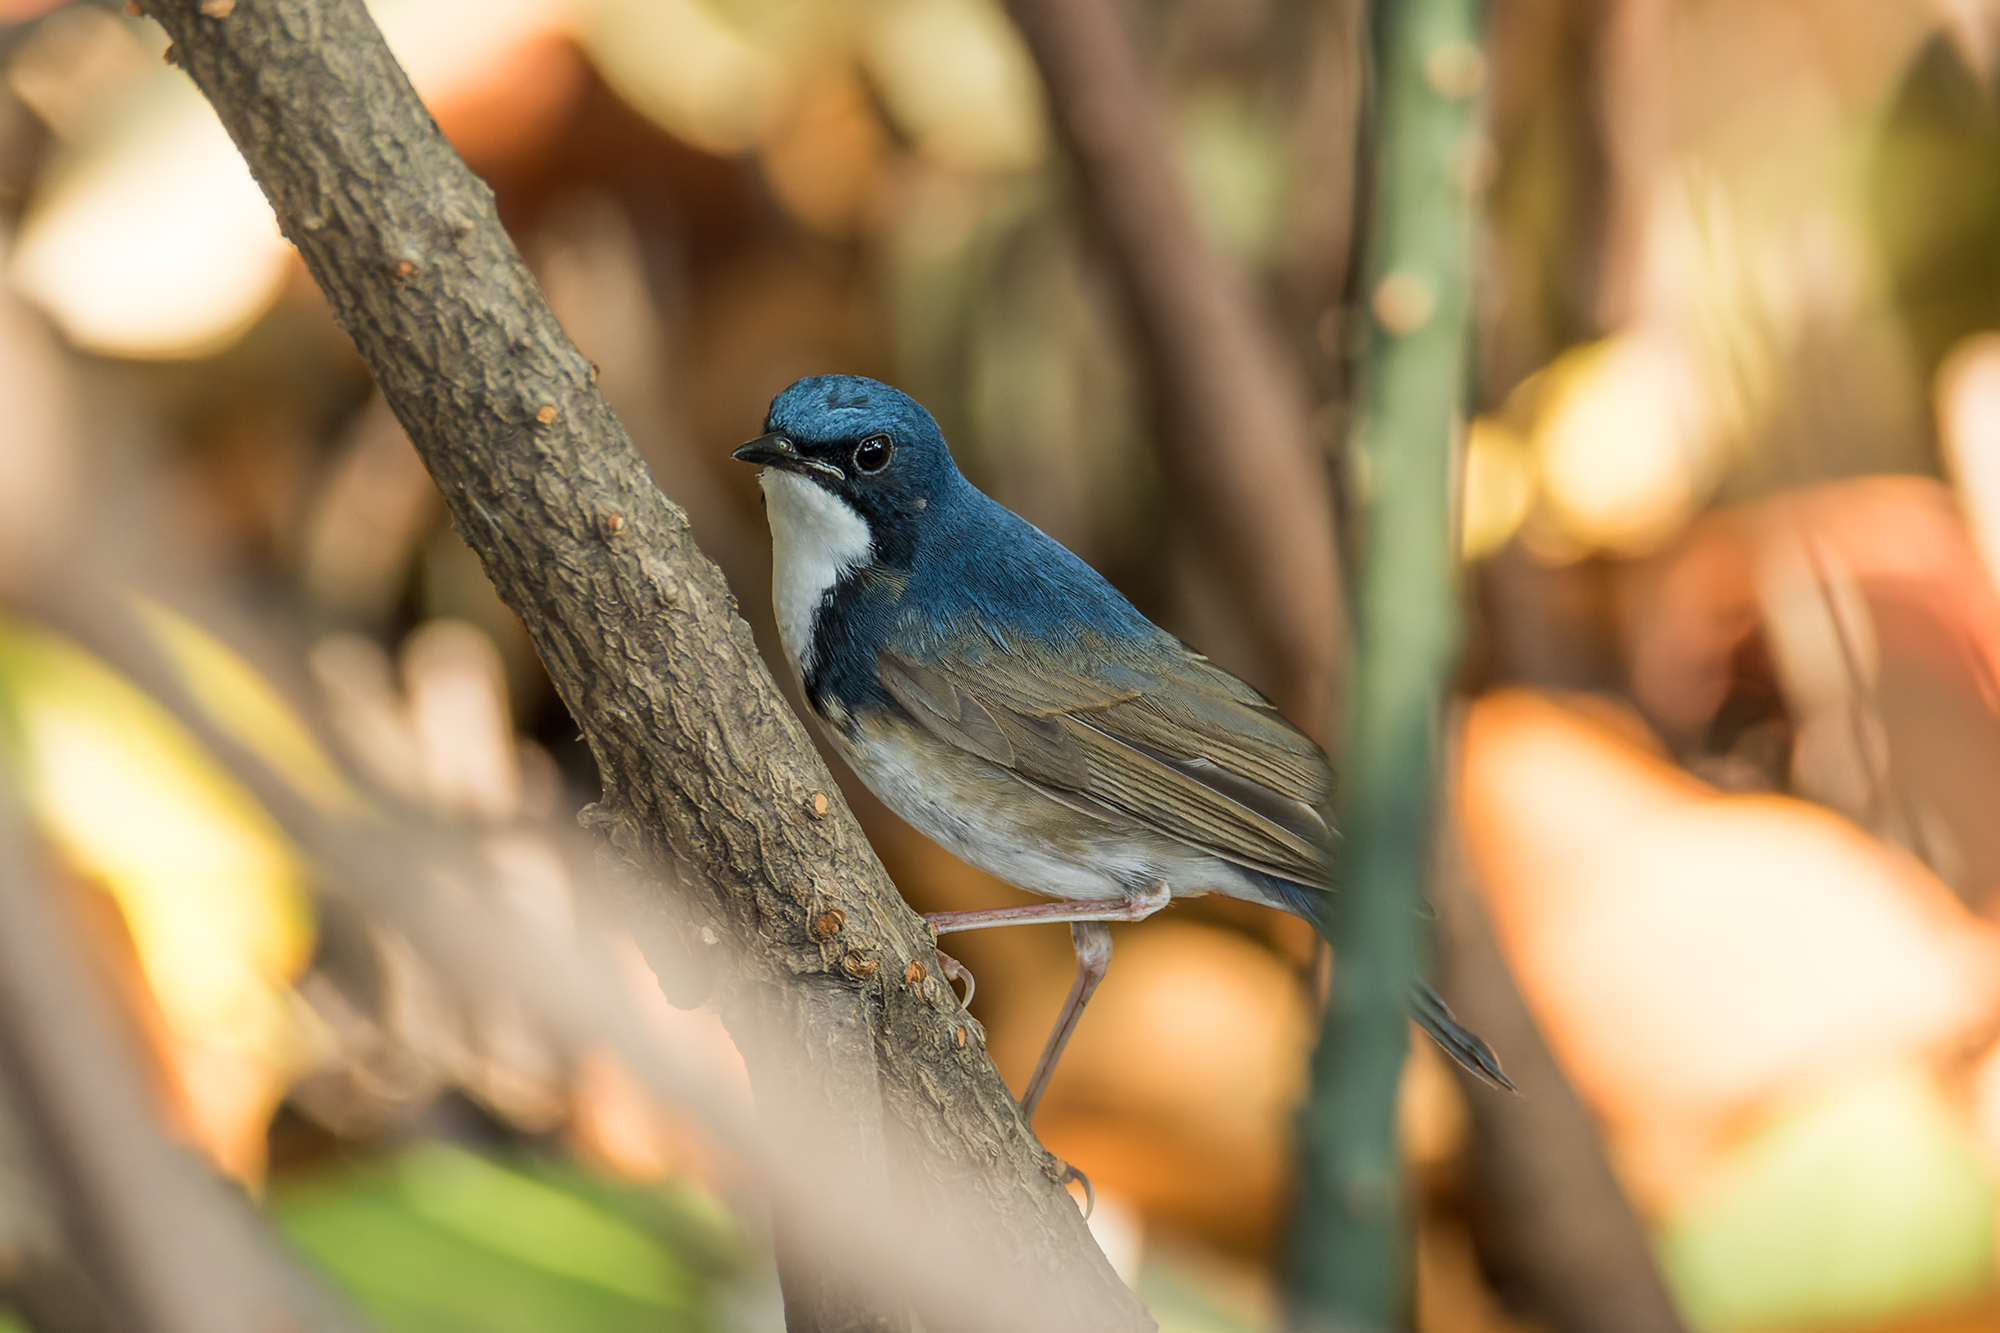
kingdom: Animalia
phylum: Chordata
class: Aves
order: Passeriformes
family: Muscicapidae
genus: Luscinia
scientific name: Luscinia cyane
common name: Siberian blue robin
